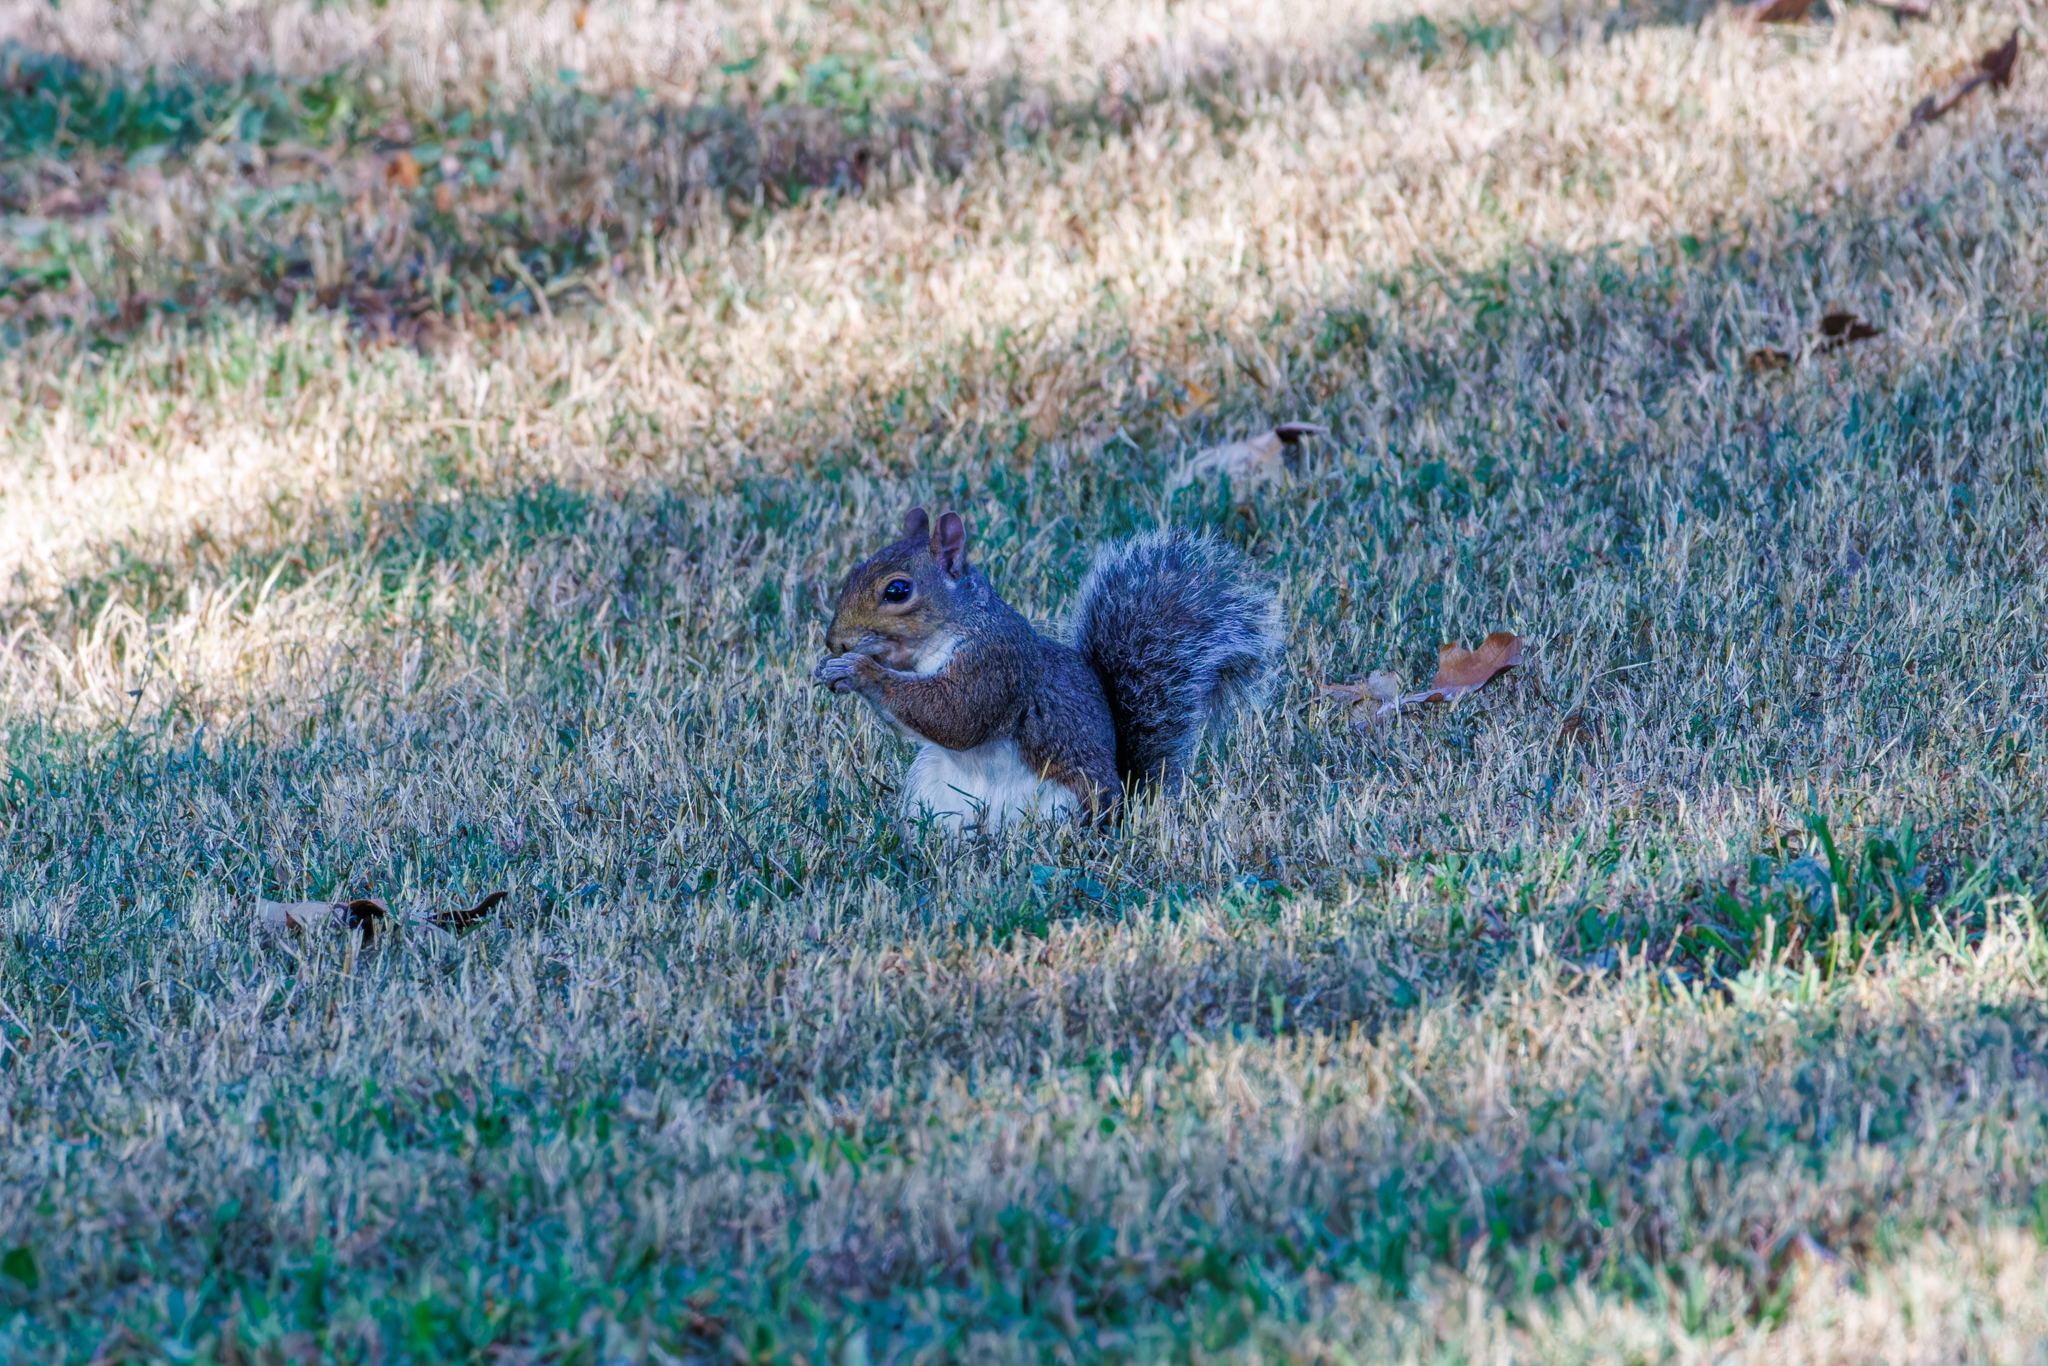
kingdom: Animalia
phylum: Chordata
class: Mammalia
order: Rodentia
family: Sciuridae
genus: Sciurus
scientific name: Sciurus carolinensis
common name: Eastern gray squirrel
